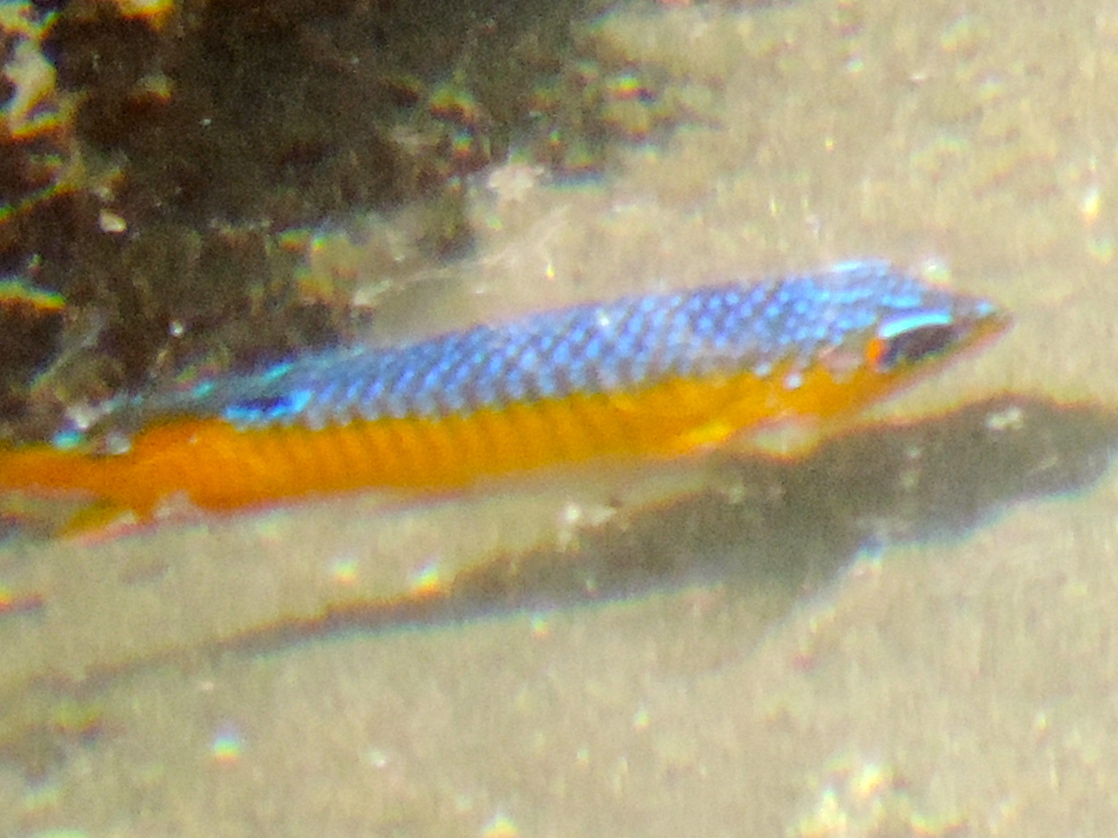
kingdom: Animalia
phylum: Chordata
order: Perciformes
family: Pomacentridae
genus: Stegastes
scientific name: Stegastes flavilatus
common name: Beaubrummel
